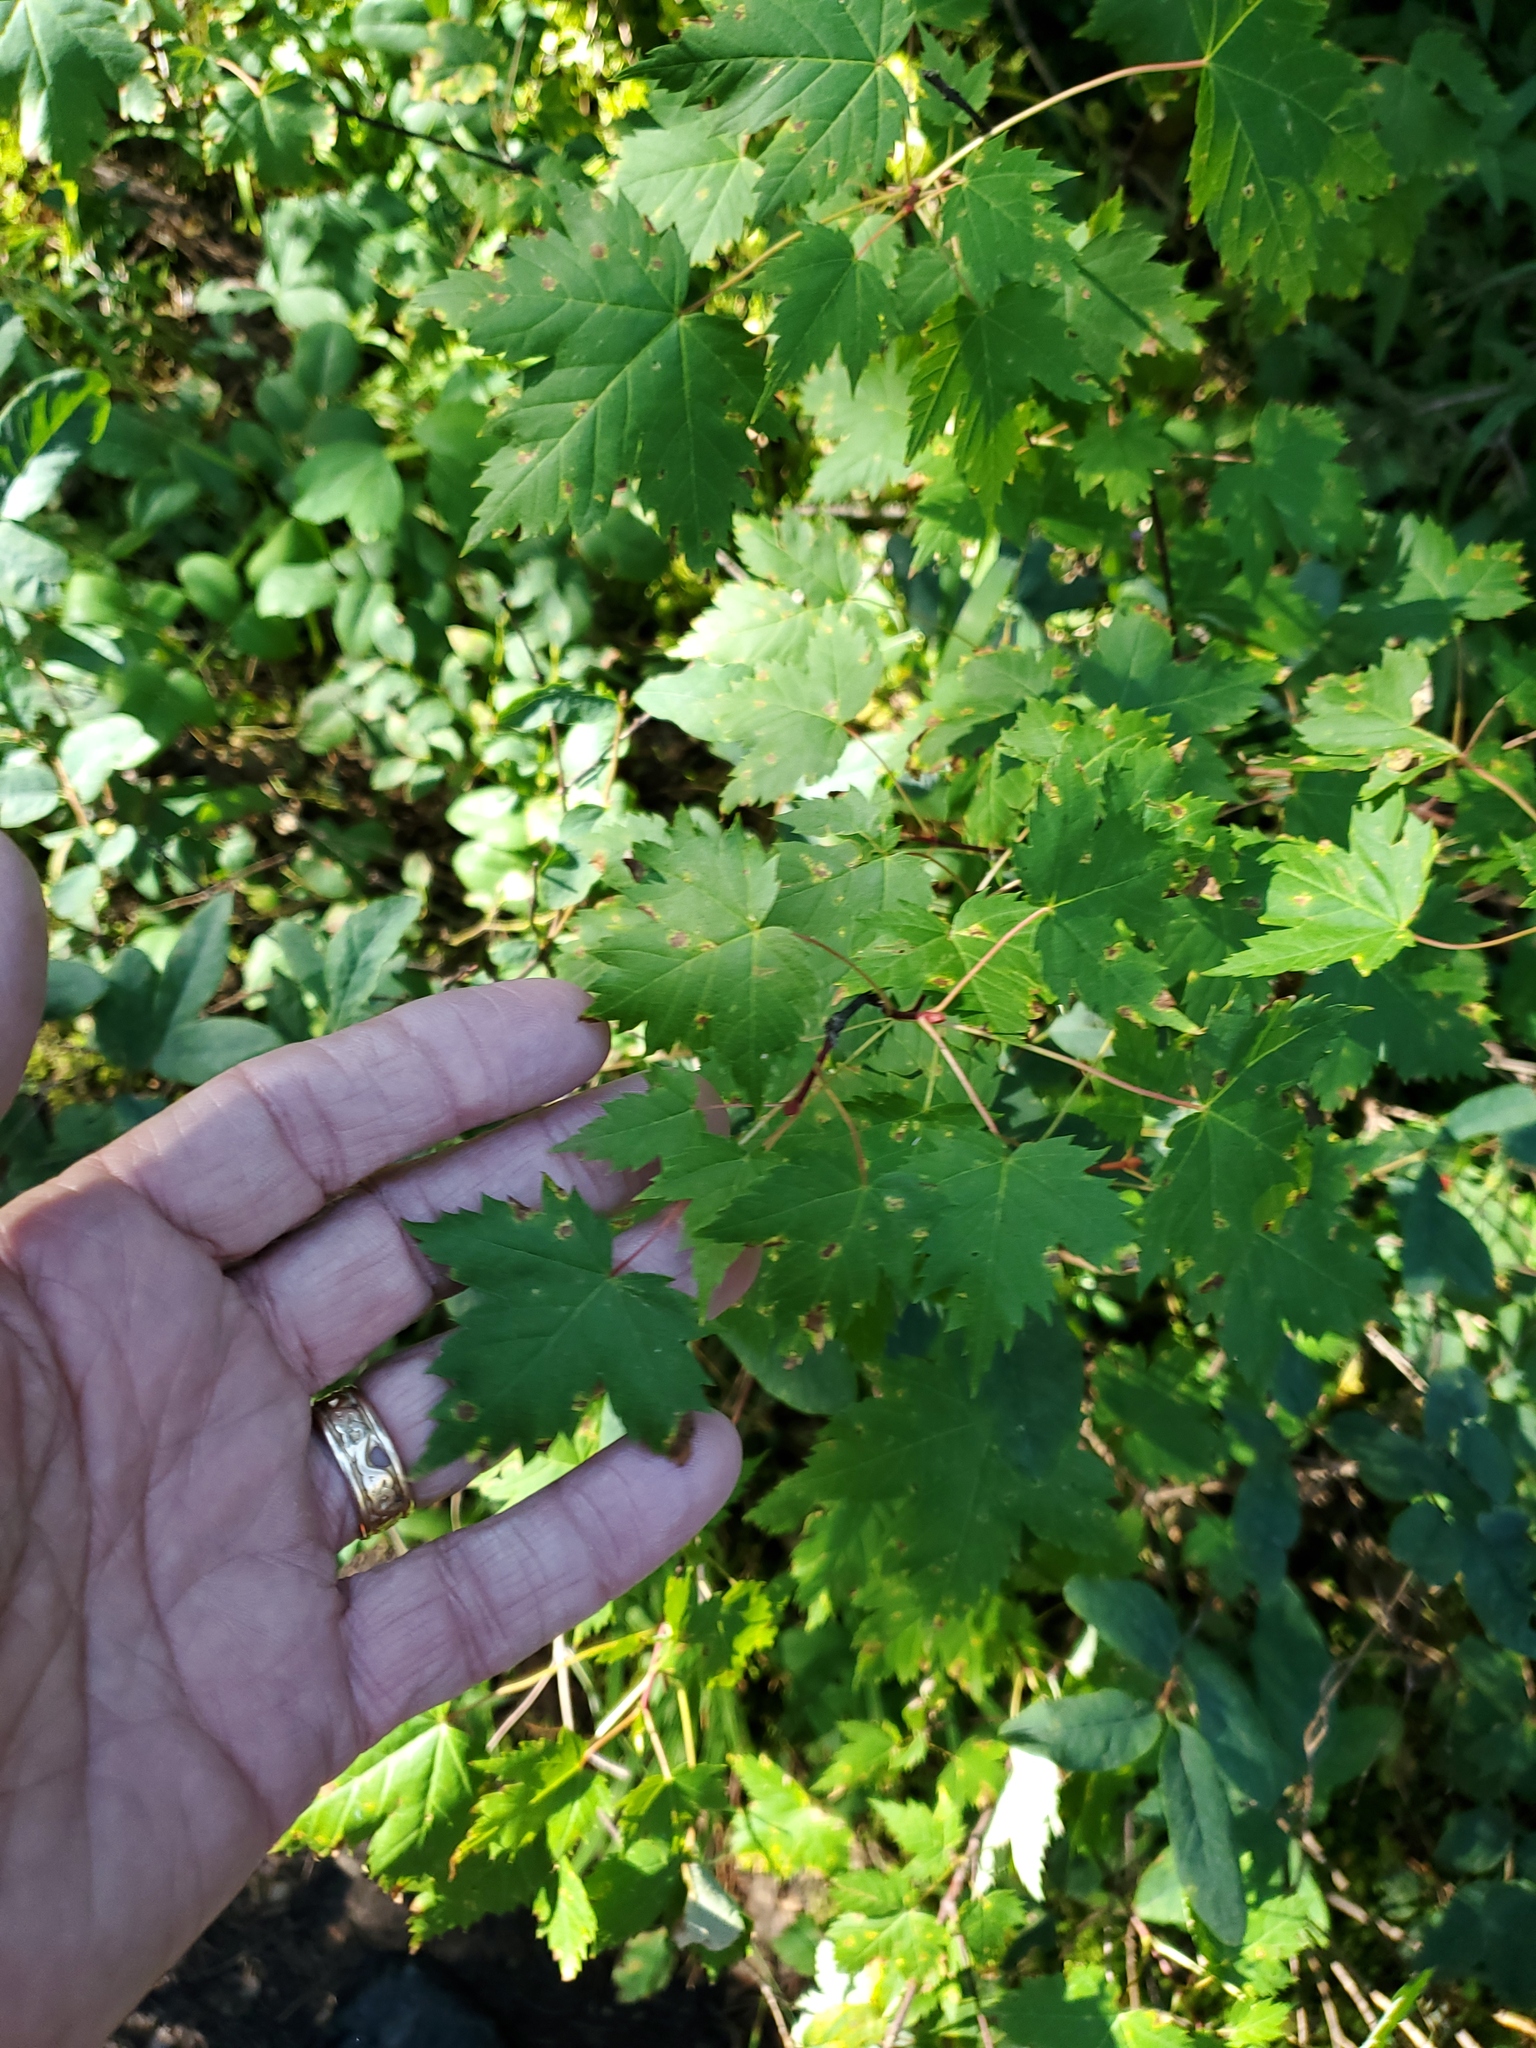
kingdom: Plantae
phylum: Tracheophyta
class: Magnoliopsida
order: Sapindales
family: Sapindaceae
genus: Acer
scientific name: Acer glabrum
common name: Rocky mountain maple
